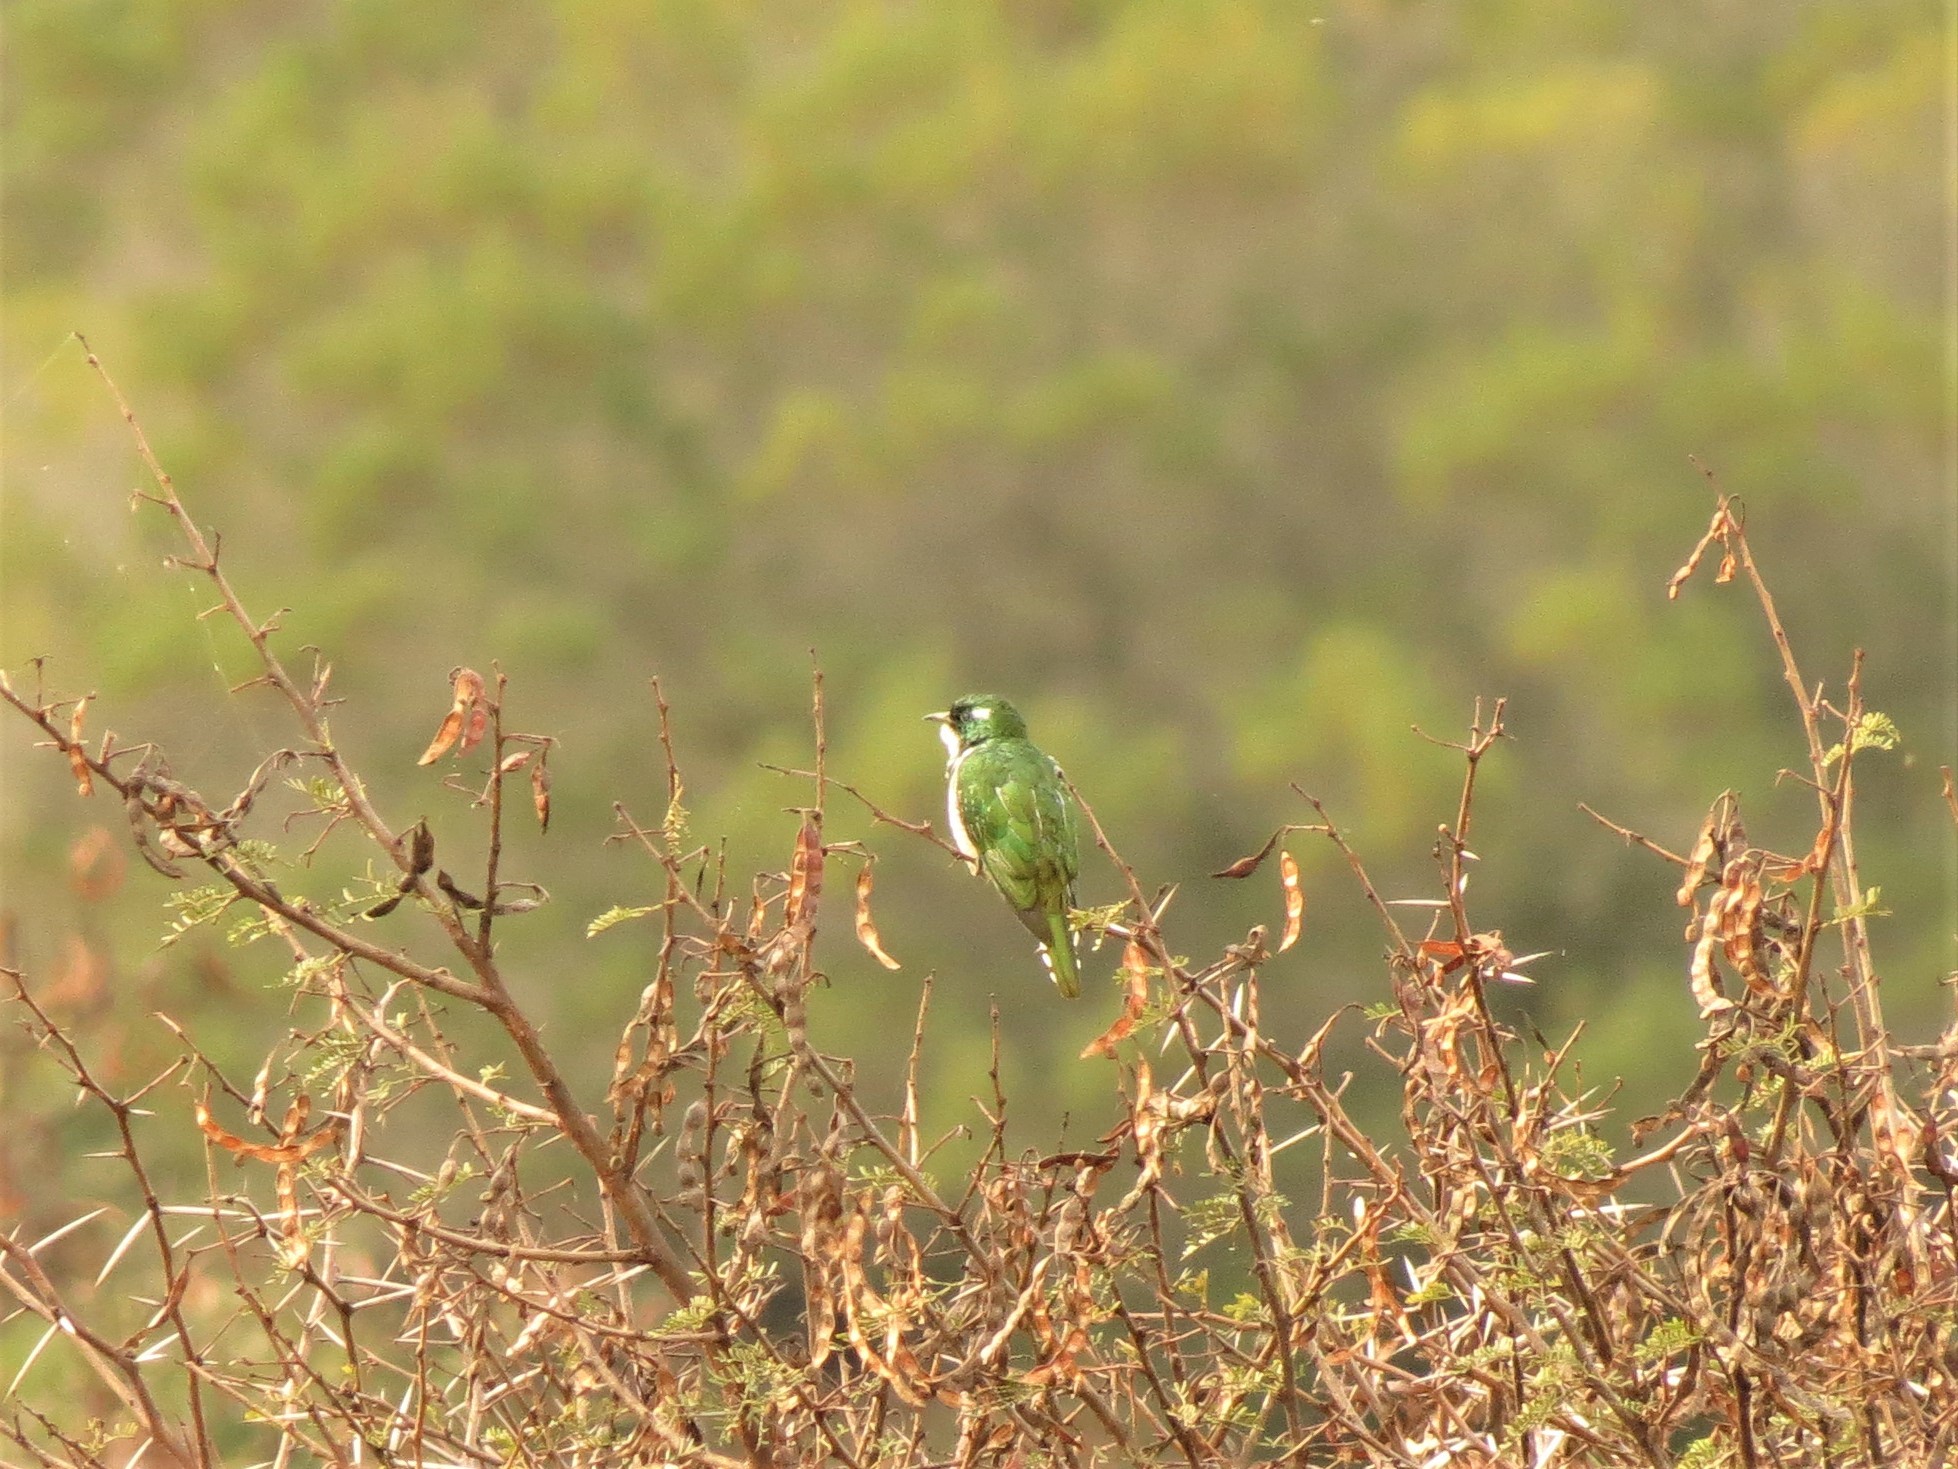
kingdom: Animalia
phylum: Chordata
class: Aves
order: Cuculiformes
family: Cuculidae
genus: Chrysococcyx
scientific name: Chrysococcyx klaas
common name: Klaas's cuckoo
